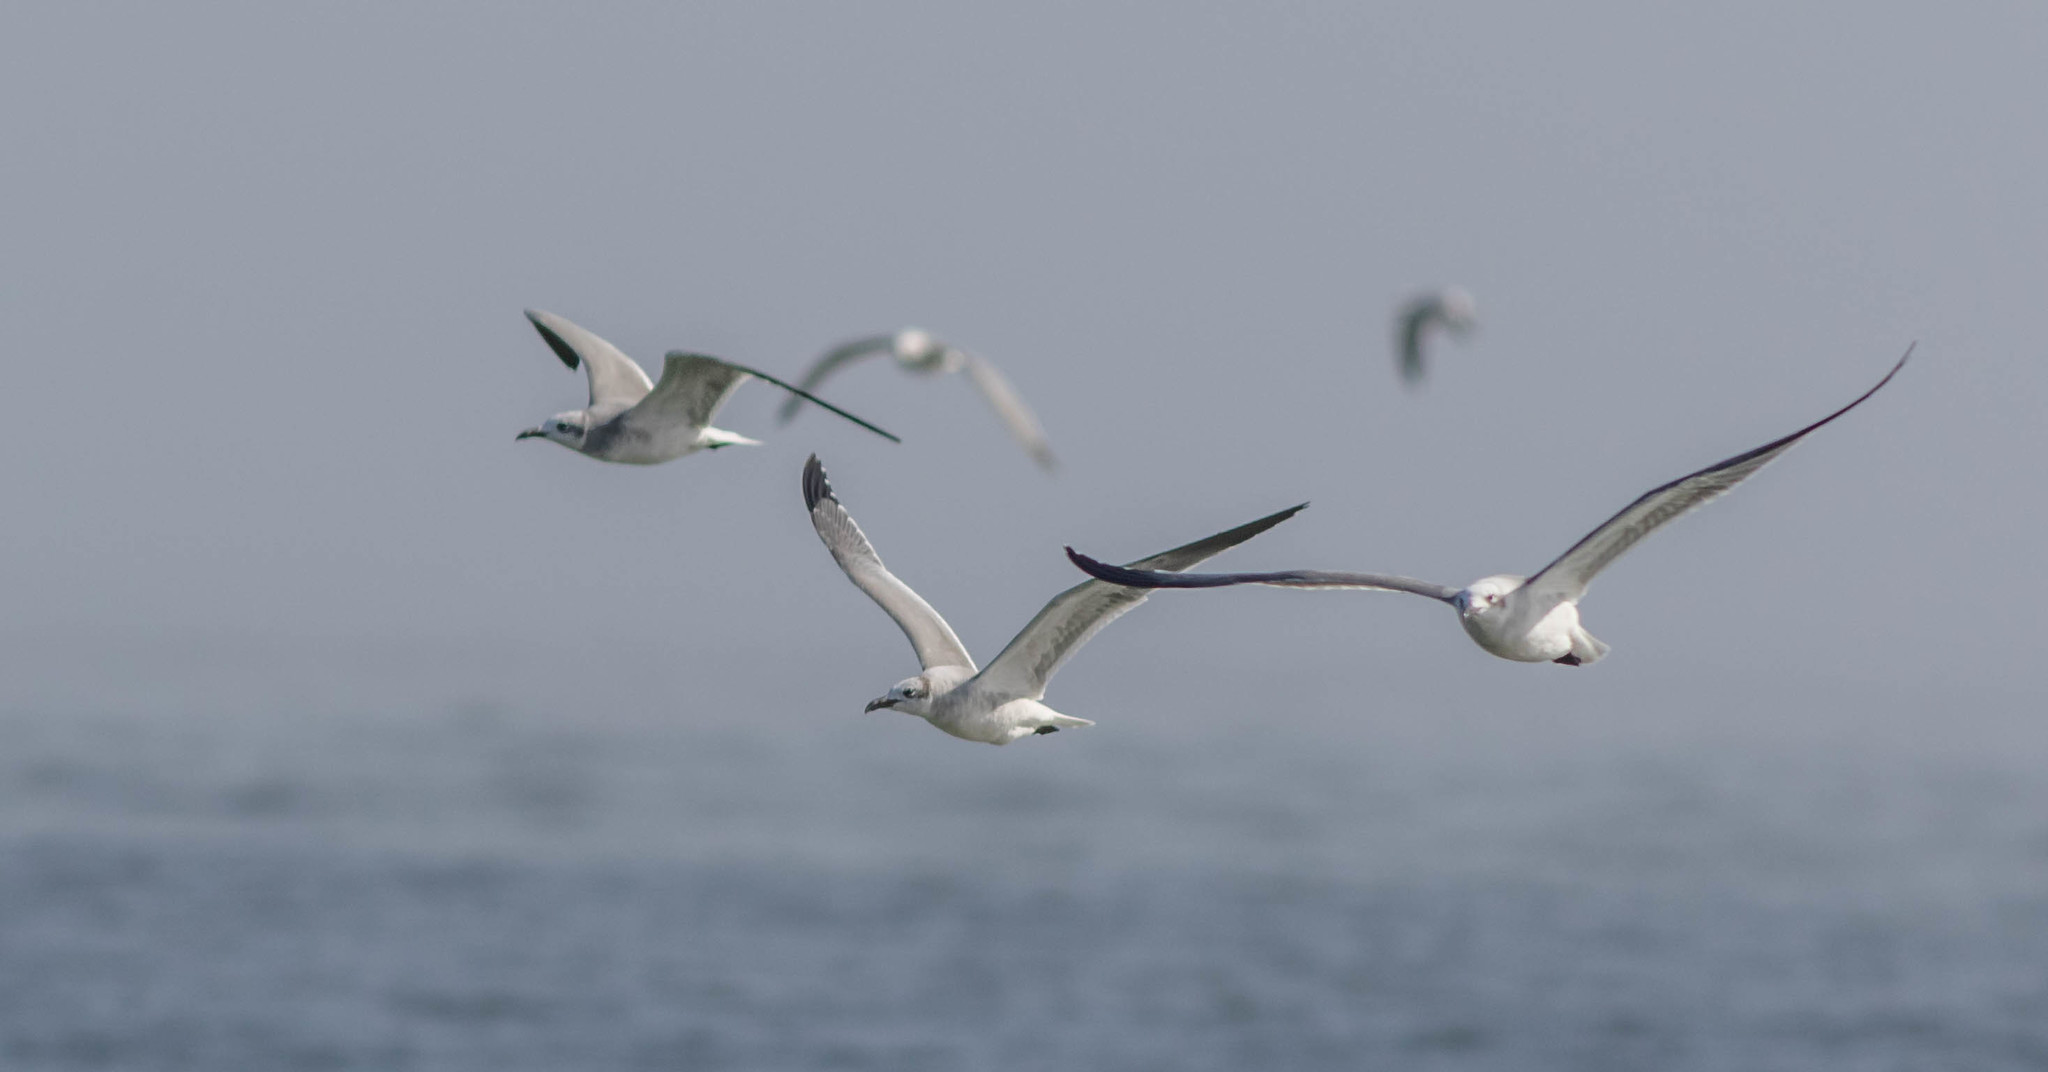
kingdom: Animalia
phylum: Chordata
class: Aves
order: Charadriiformes
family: Laridae
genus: Leucophaeus
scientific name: Leucophaeus atricilla
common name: Laughing gull
